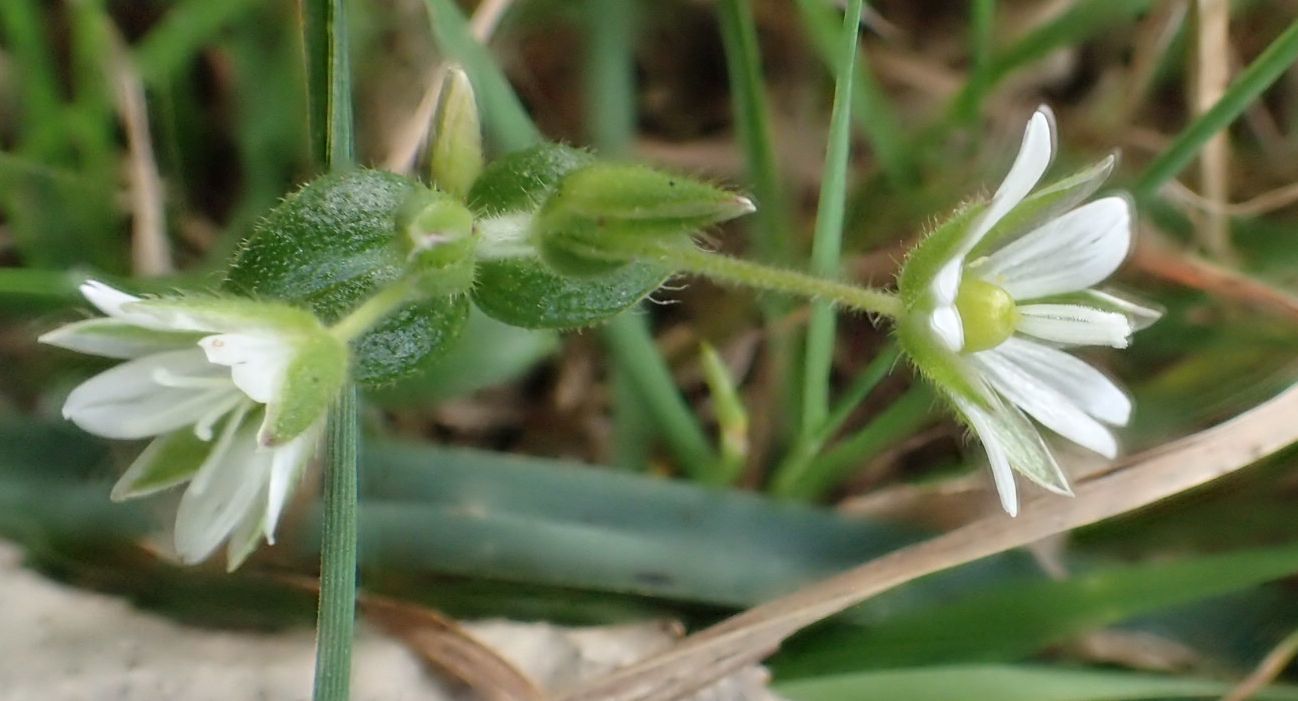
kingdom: Plantae
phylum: Tracheophyta
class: Magnoliopsida
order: Caryophyllales
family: Caryophyllaceae
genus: Cerastium
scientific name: Cerastium fontanum
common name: Common mouse-ear
